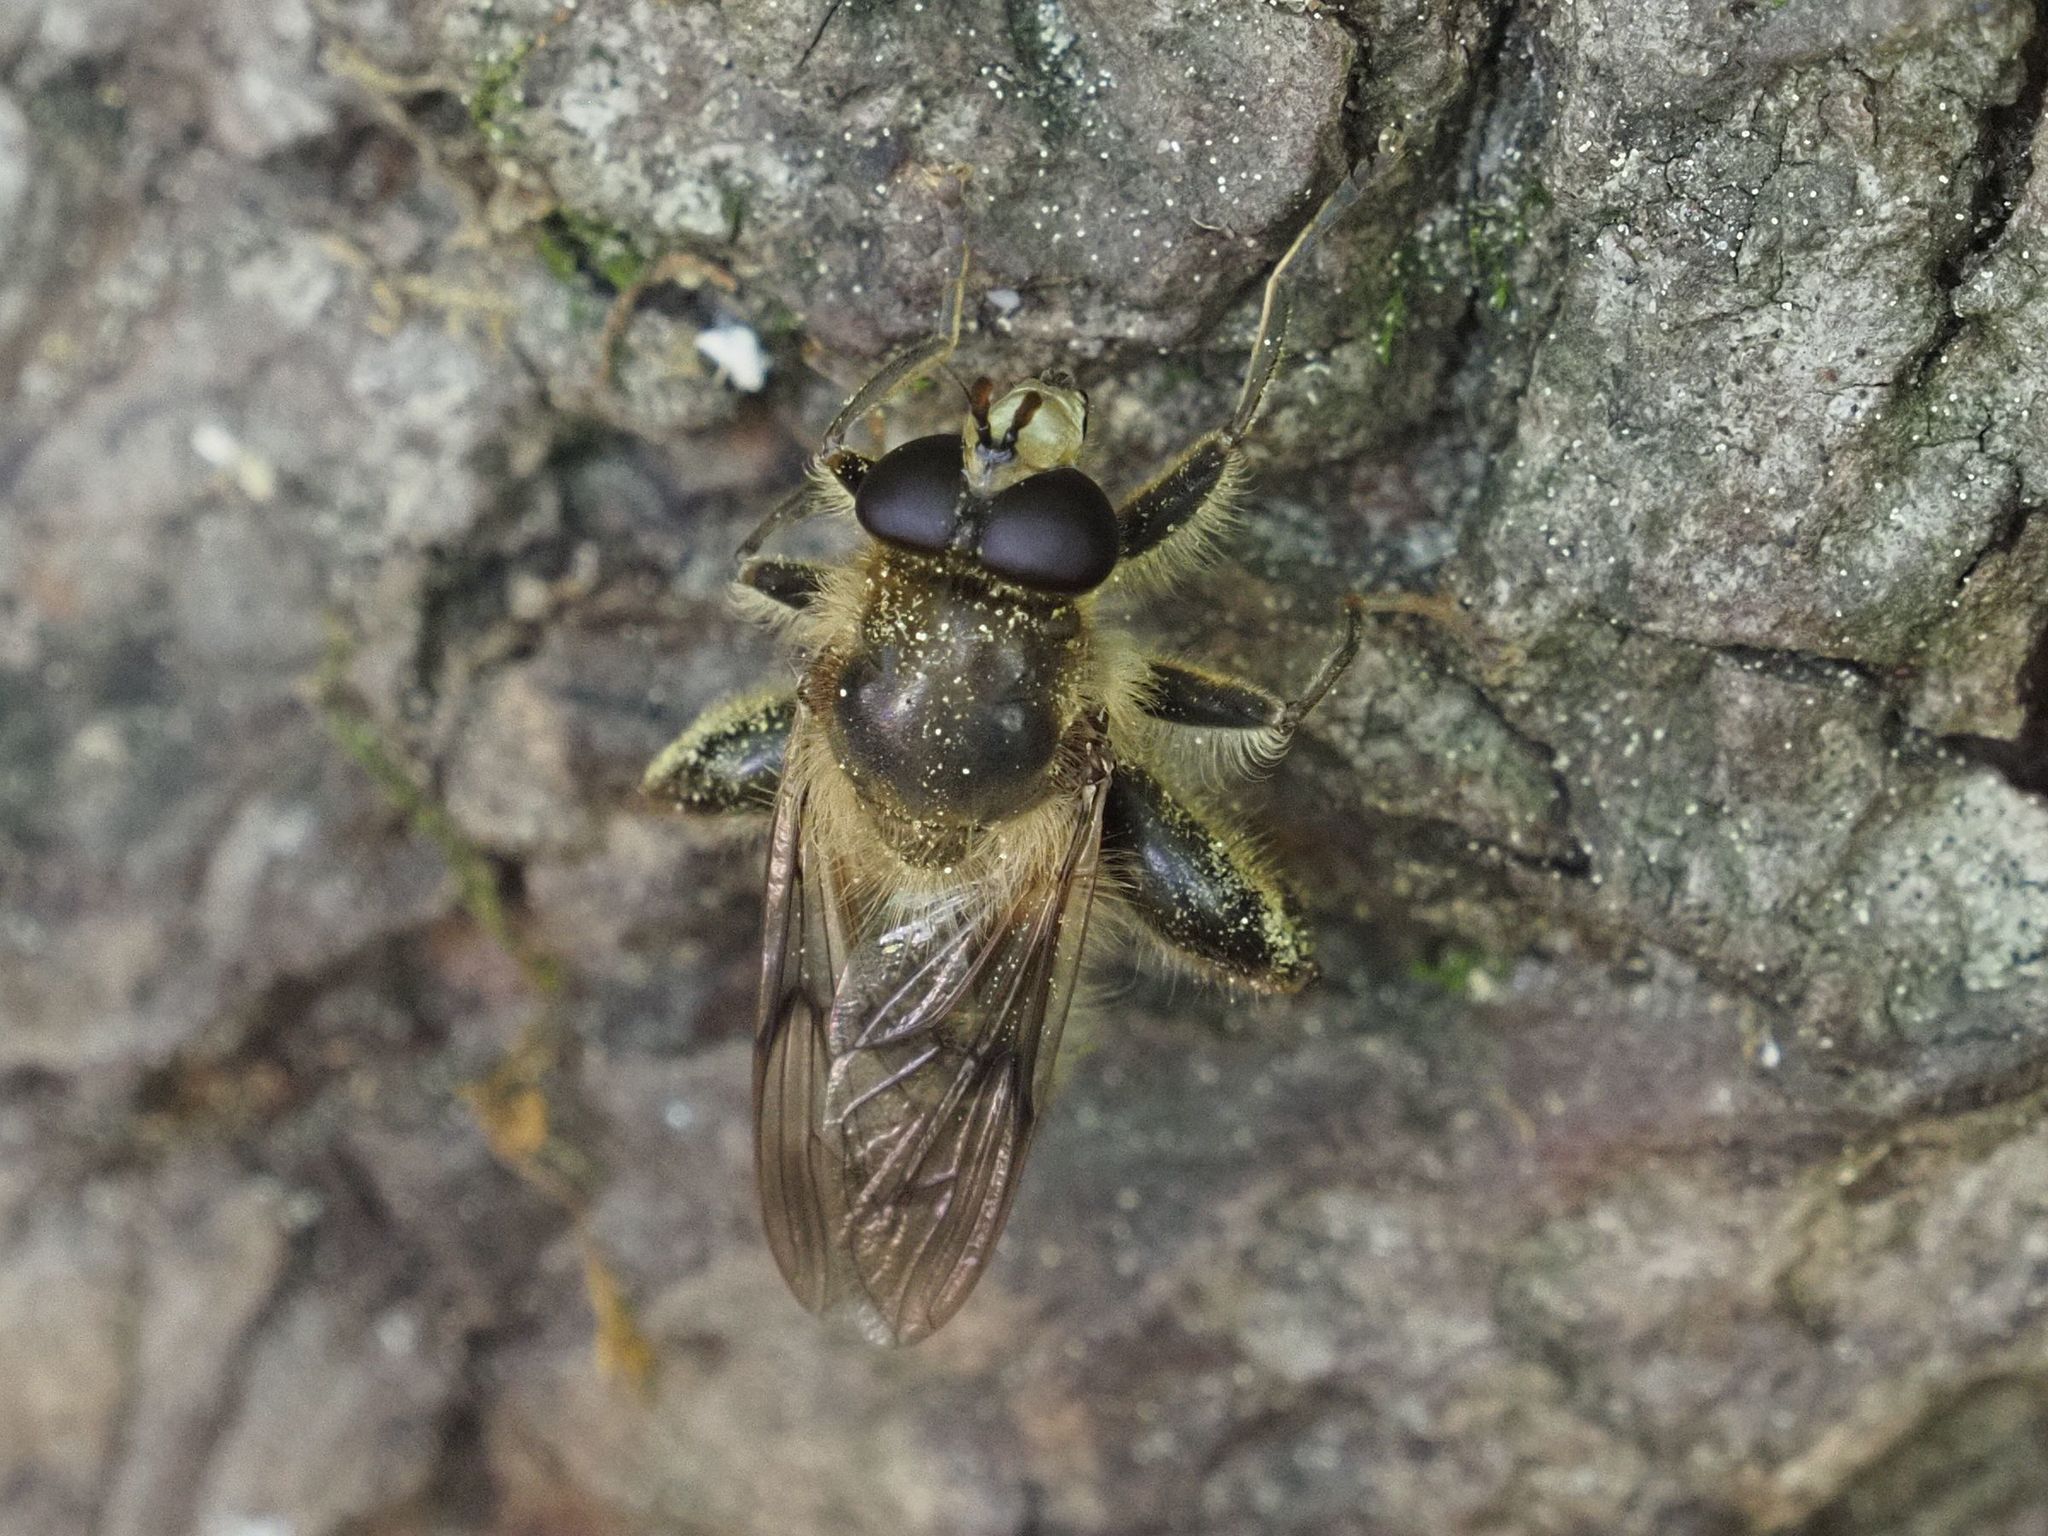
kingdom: Animalia
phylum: Arthropoda
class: Insecta
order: Diptera
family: Syrphidae
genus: Criorhina
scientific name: Criorhina pachymera
